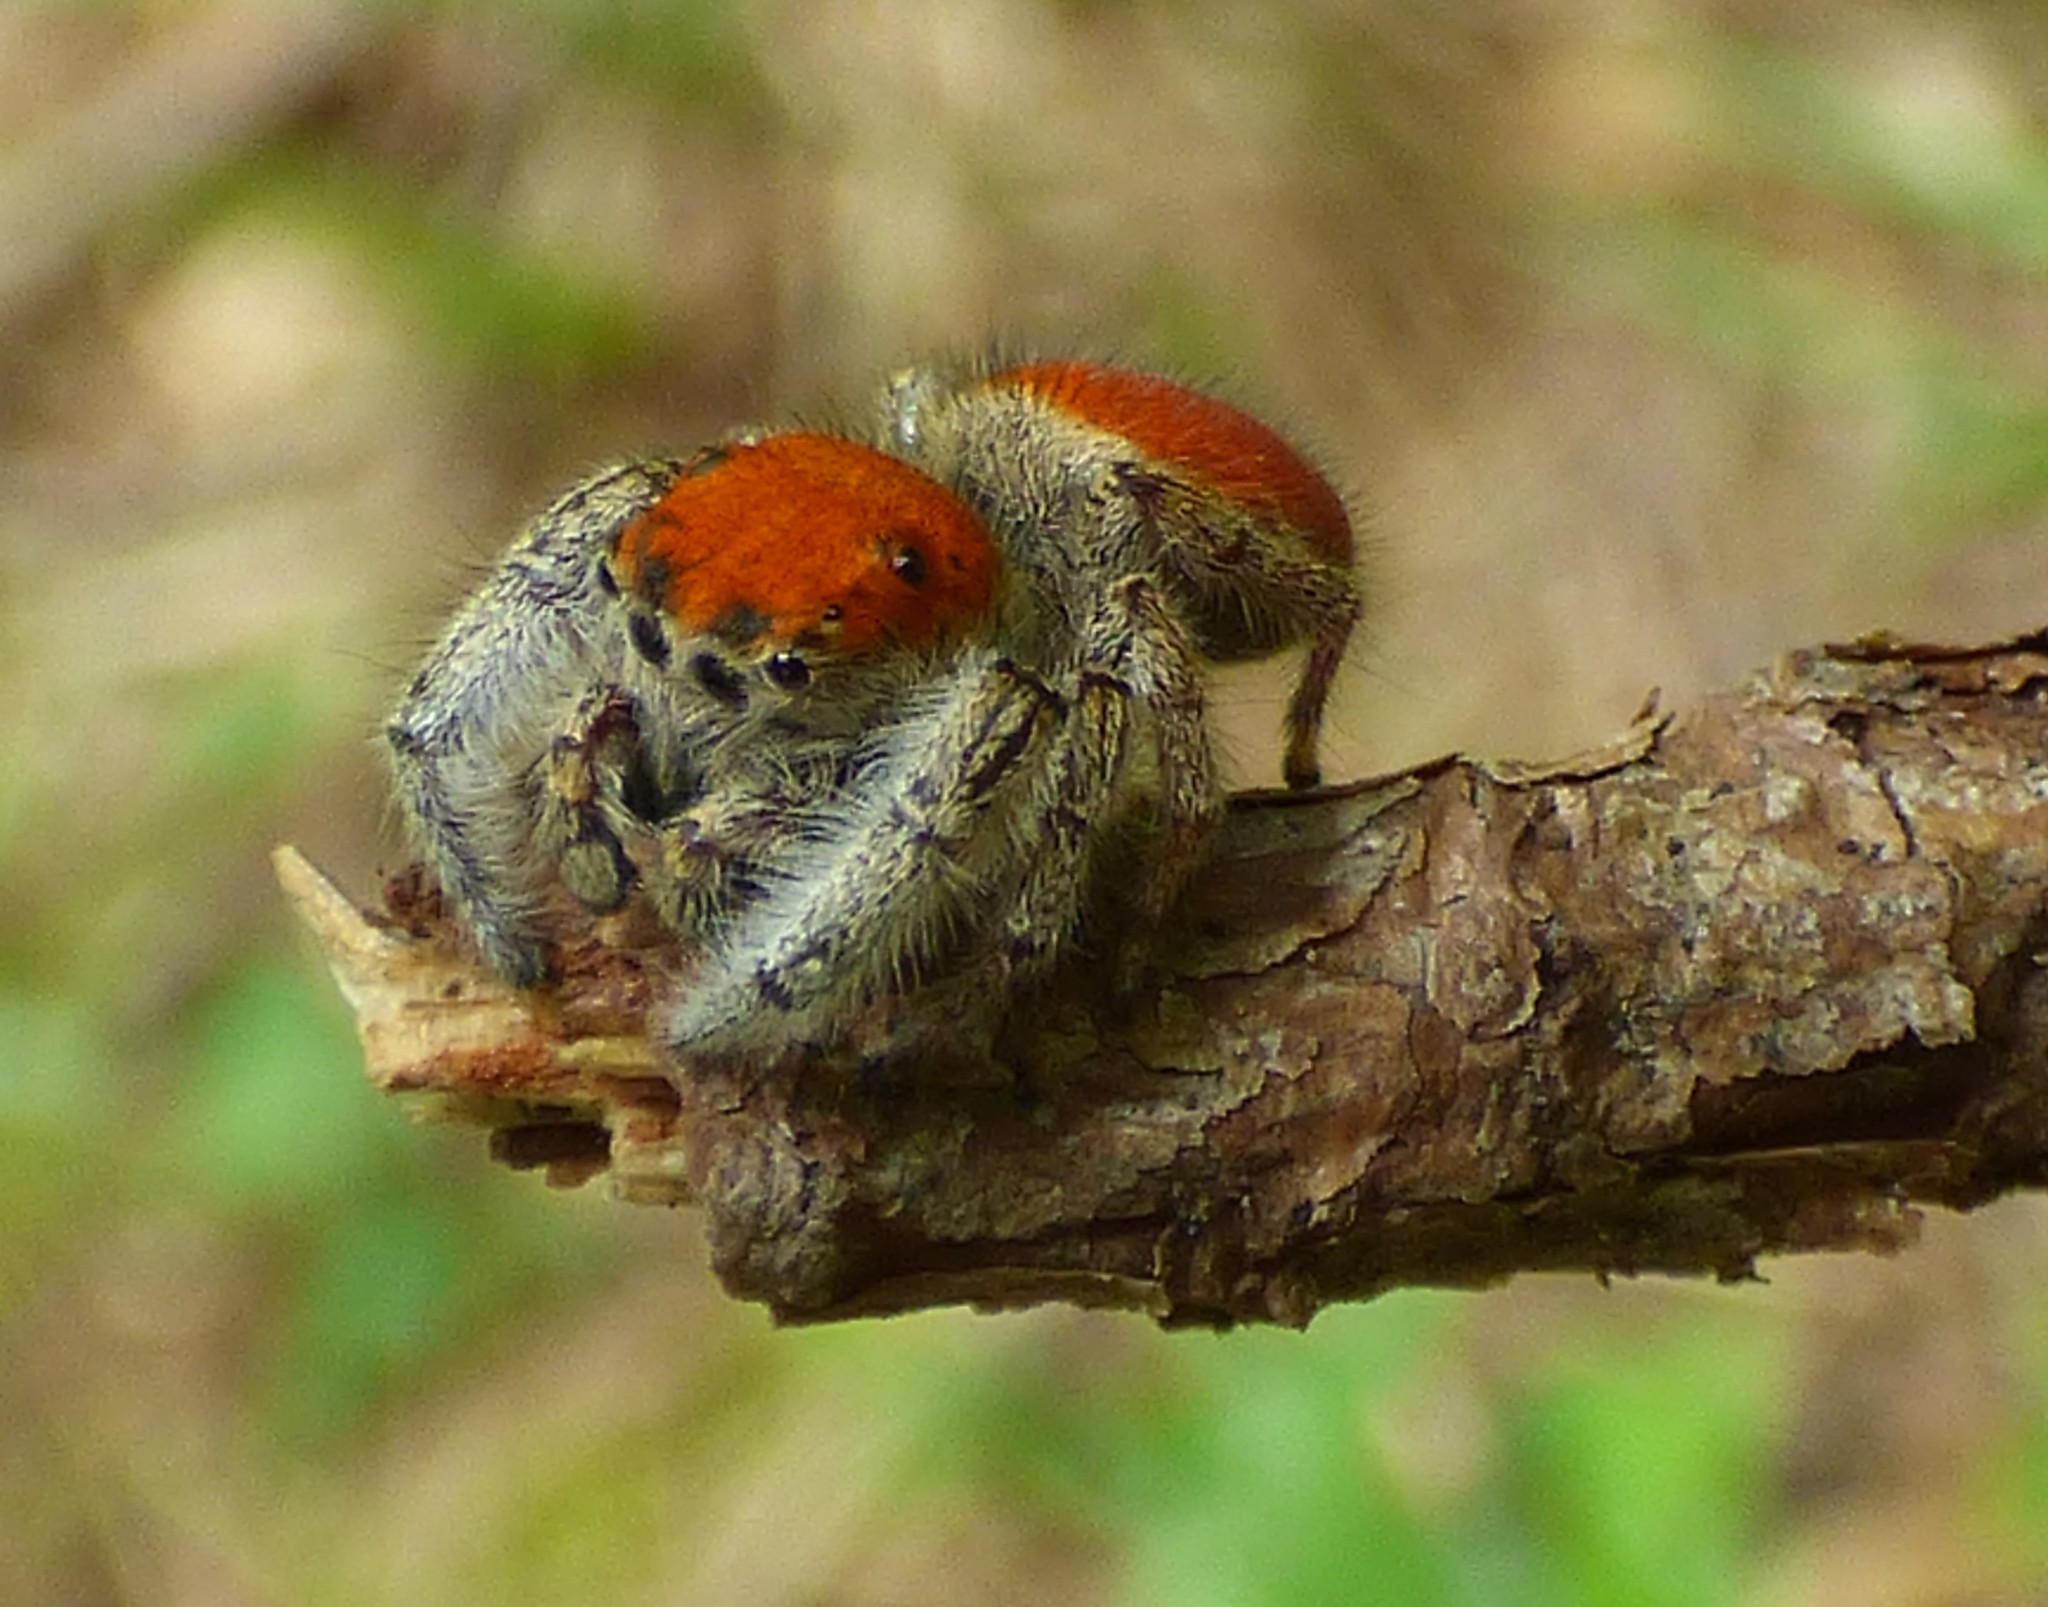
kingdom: Animalia
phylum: Arthropoda
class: Arachnida
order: Araneae
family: Salticidae
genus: Phidippus
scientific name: Phidippus whitmani
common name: Whitman's jumping spider
